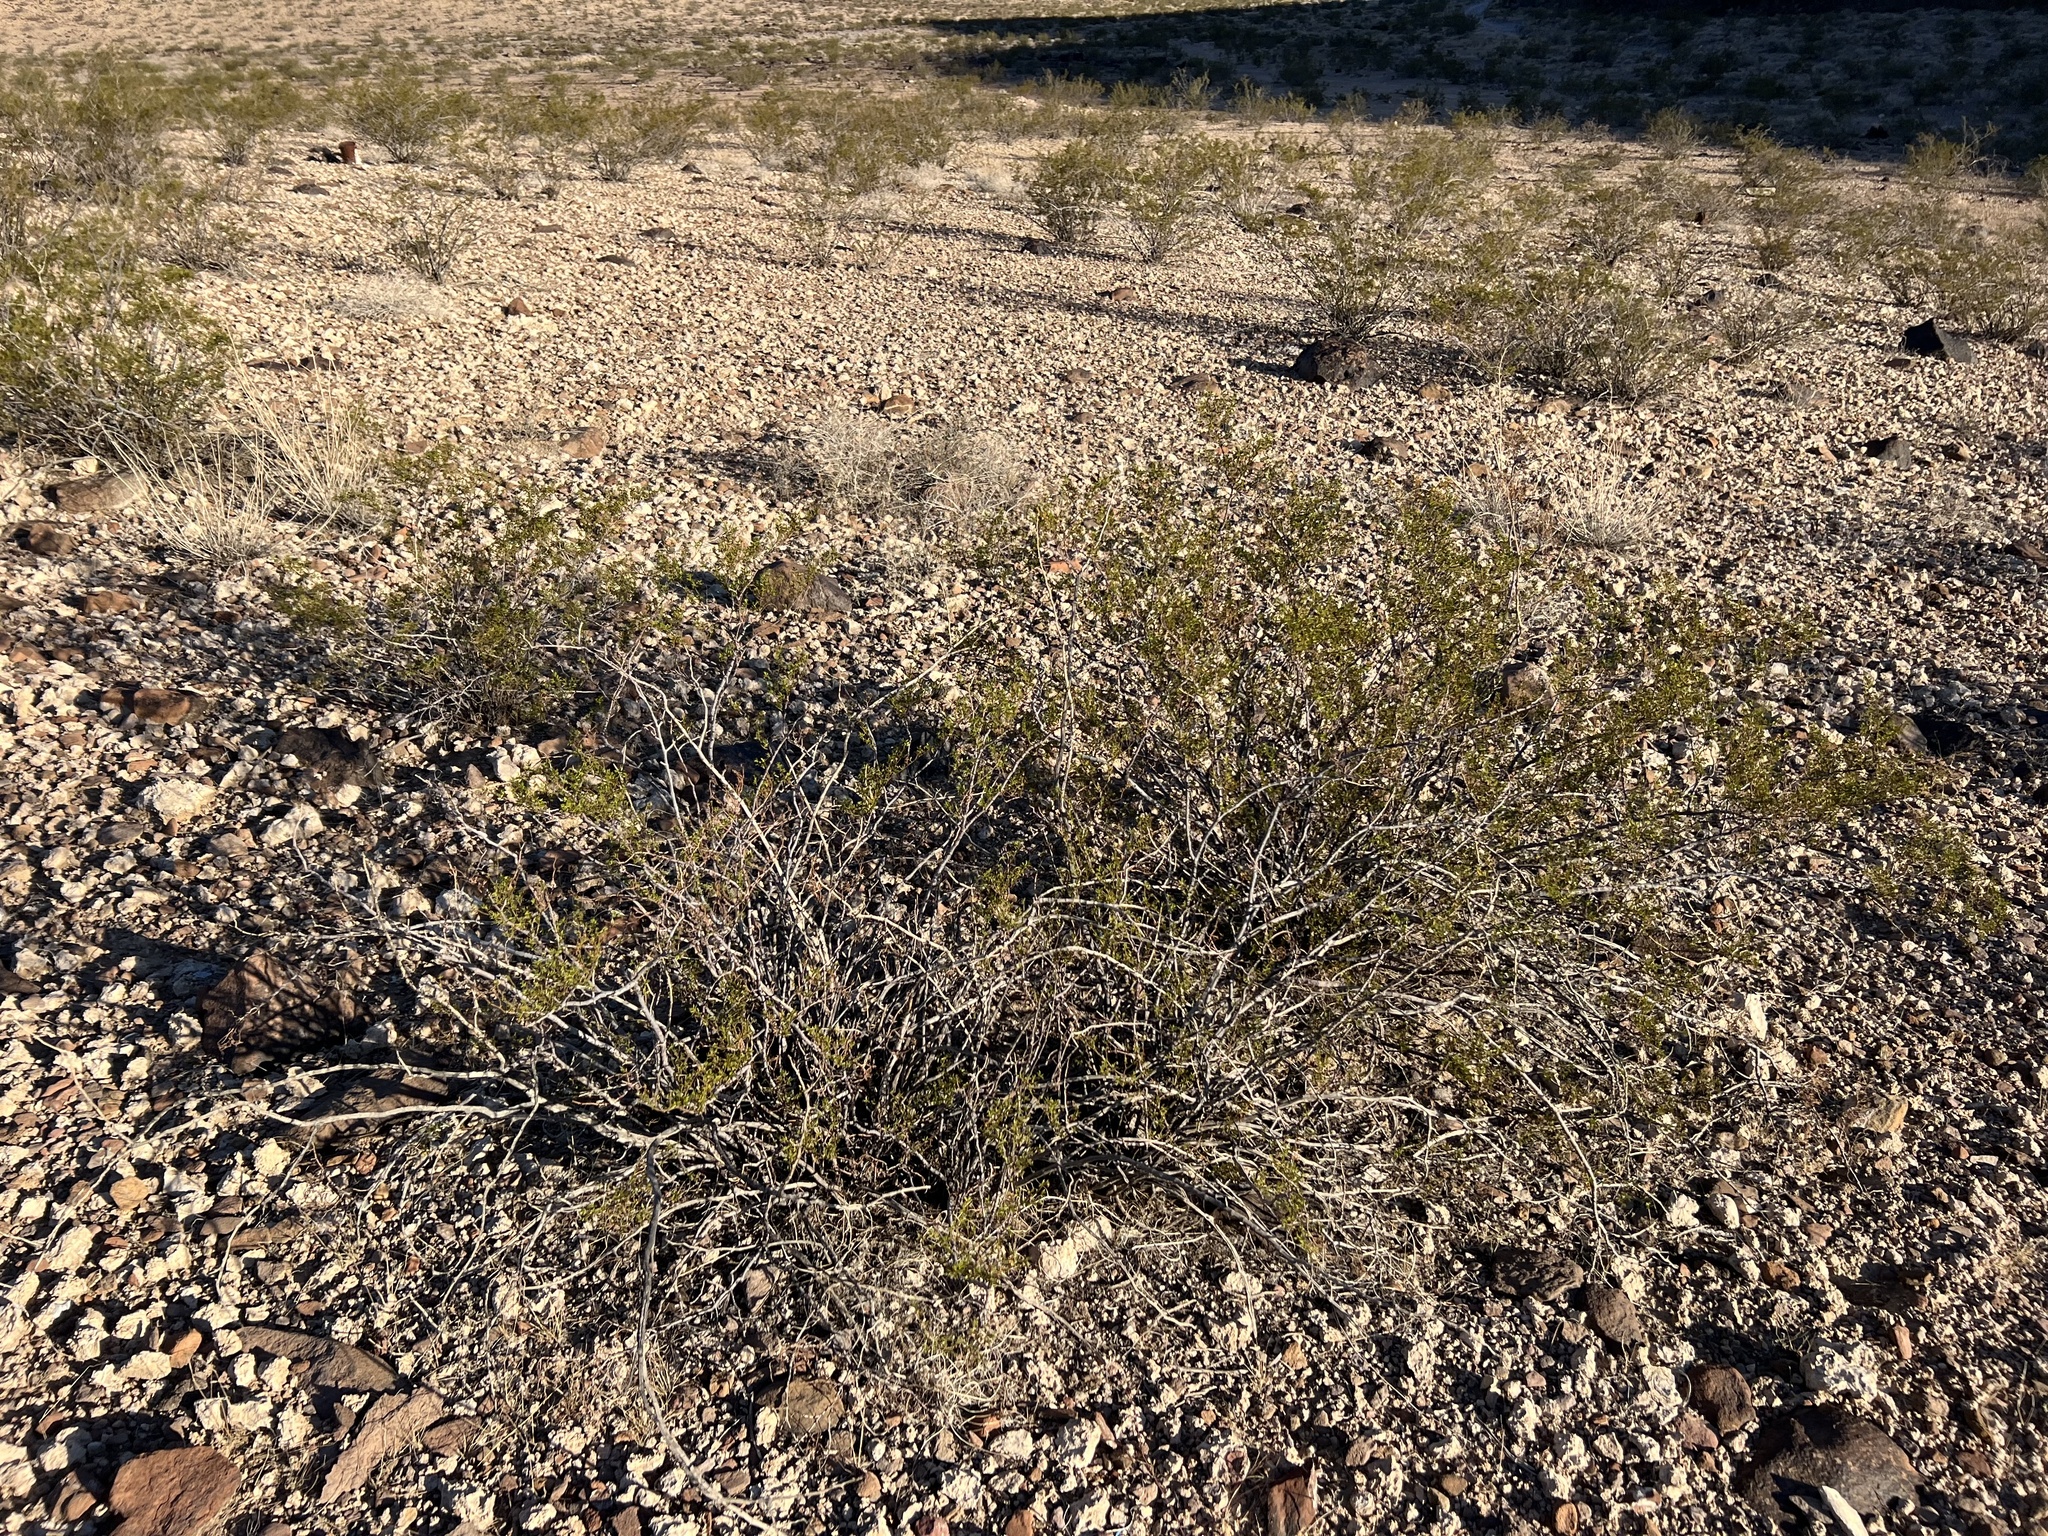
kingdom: Plantae
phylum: Tracheophyta
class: Magnoliopsida
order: Zygophyllales
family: Zygophyllaceae
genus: Larrea
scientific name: Larrea tridentata
